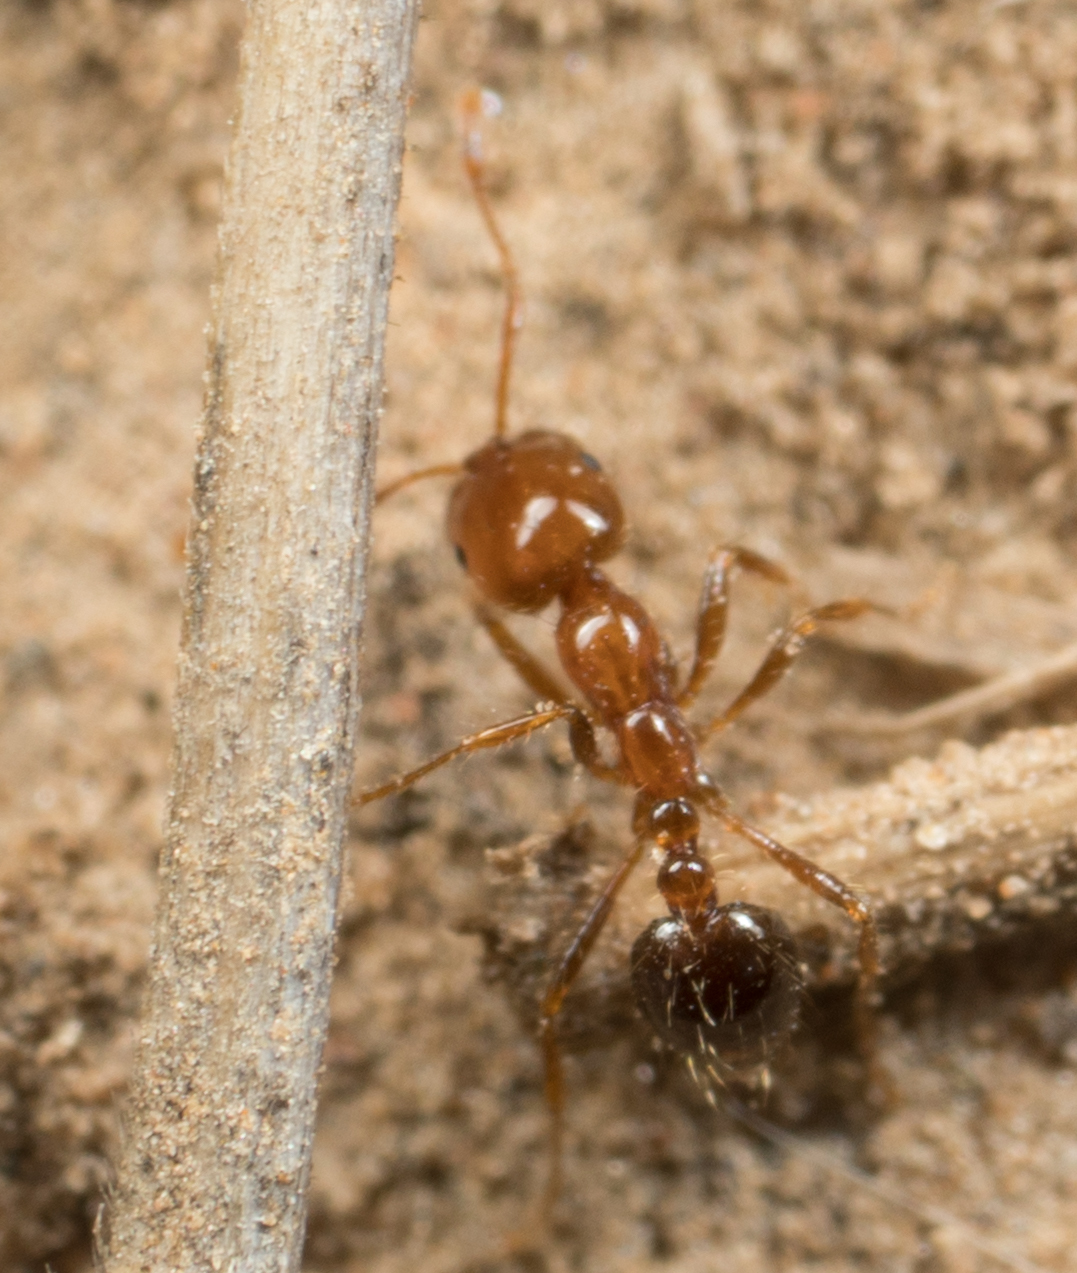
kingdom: Animalia
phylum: Arthropoda
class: Insecta
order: Hymenoptera
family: Formicidae
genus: Solenopsis
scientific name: Solenopsis invicta
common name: Red imported fire ant
